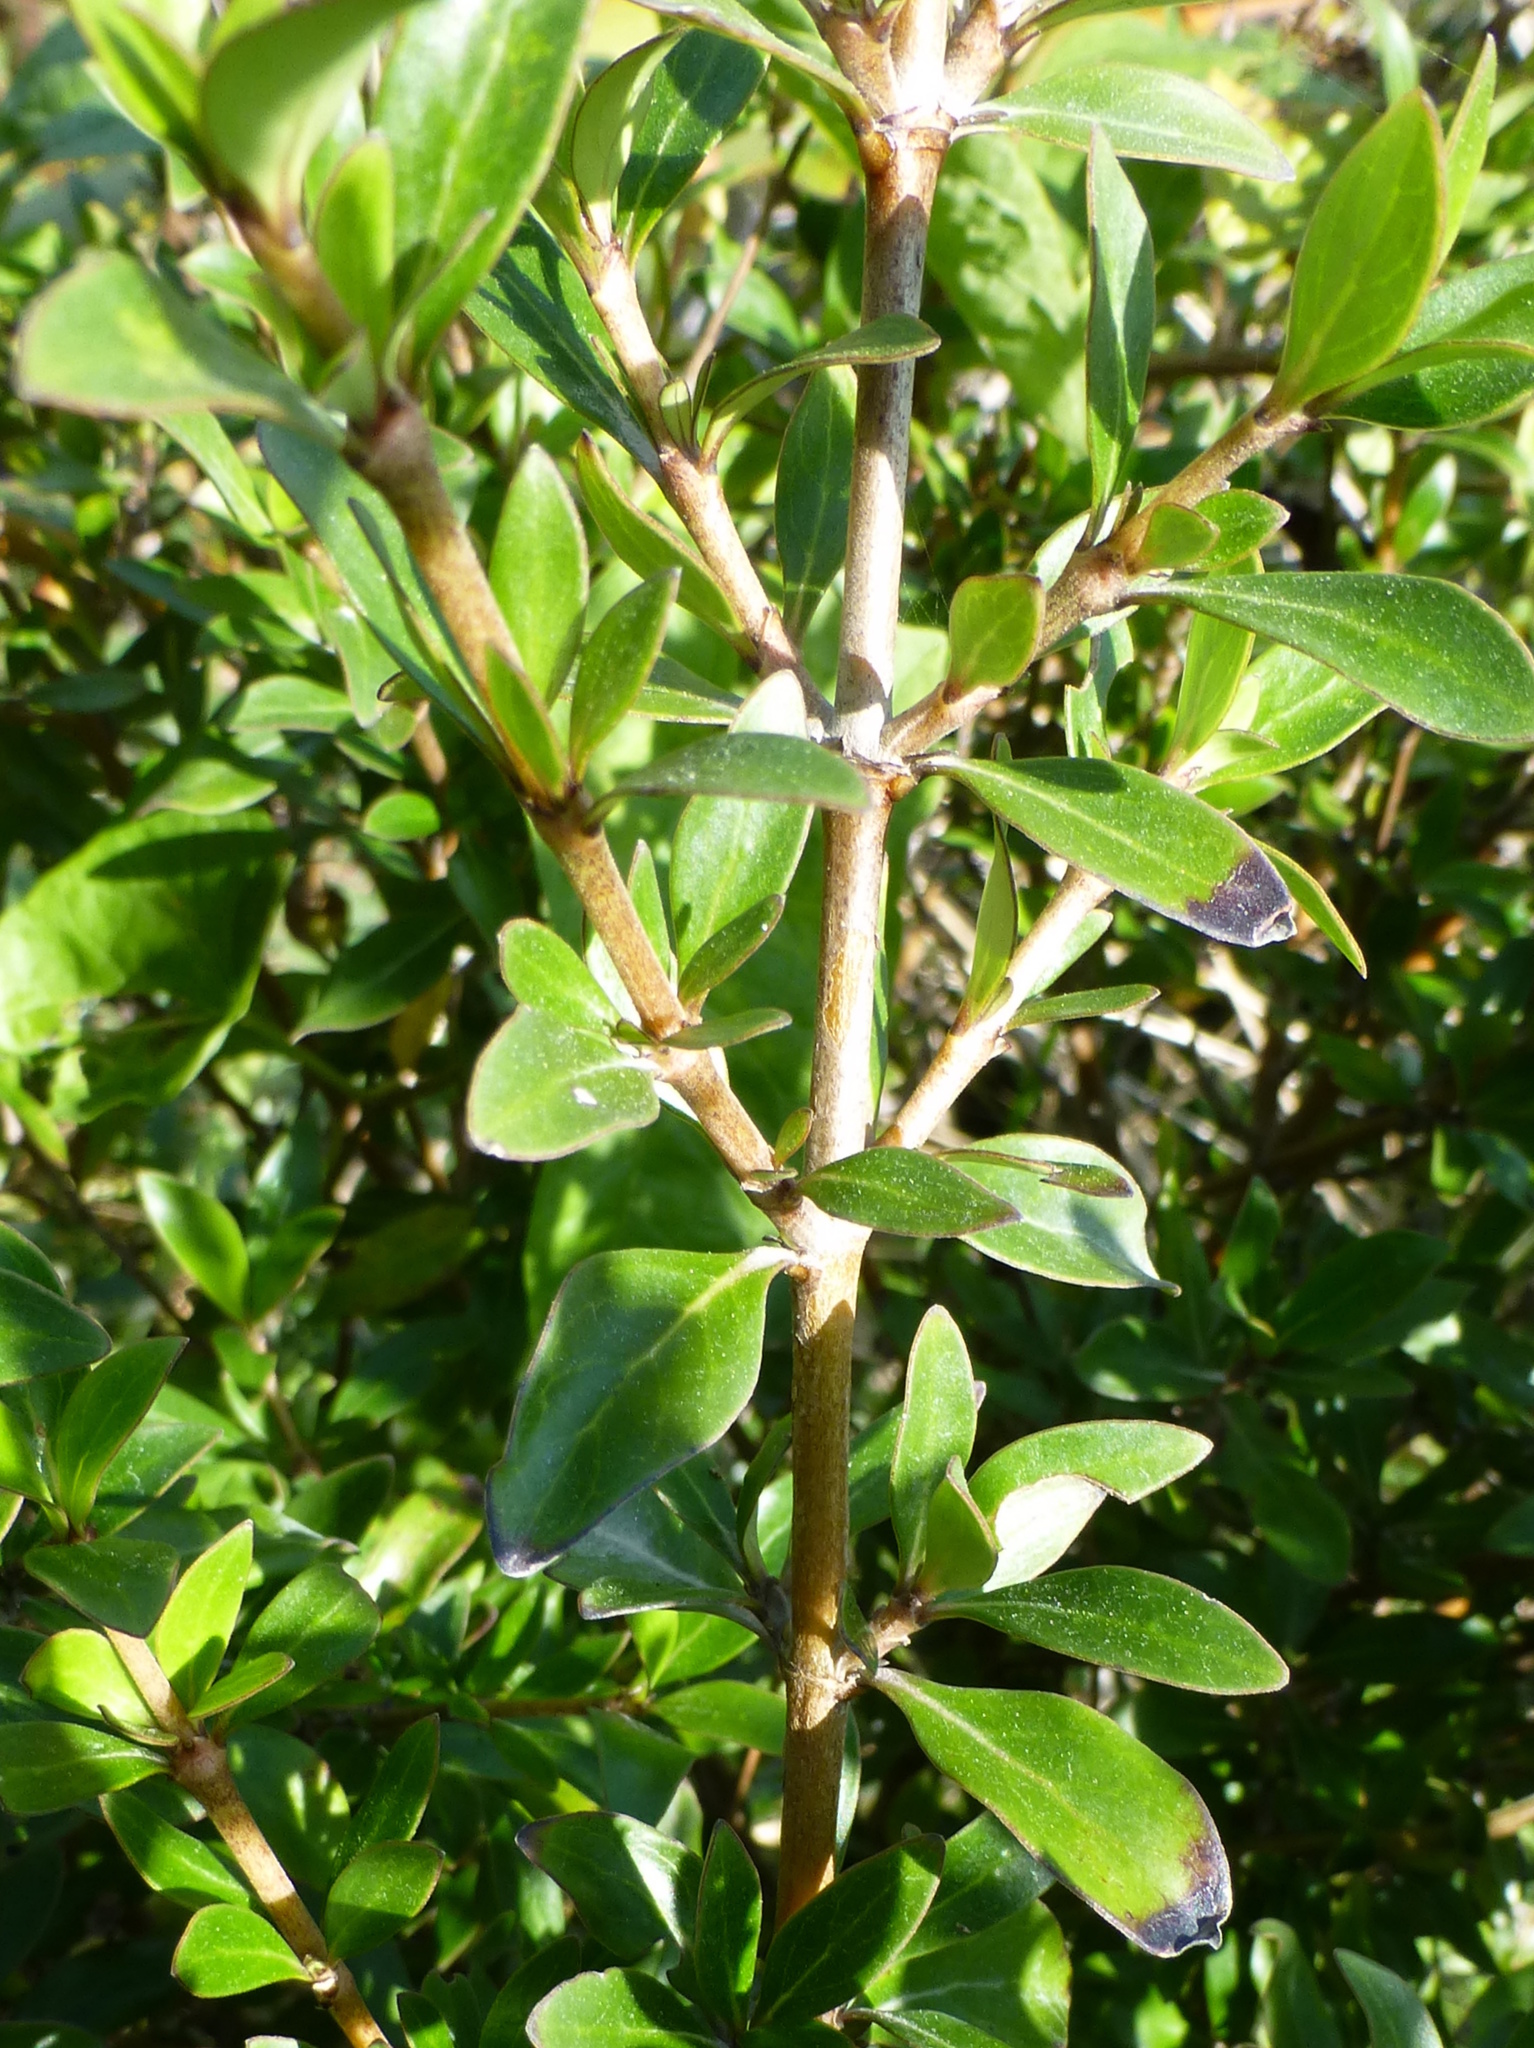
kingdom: Plantae
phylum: Tracheophyta
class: Magnoliopsida
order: Gentianales
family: Rubiaceae
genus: Coprosma
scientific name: Coprosma cunninghamii
